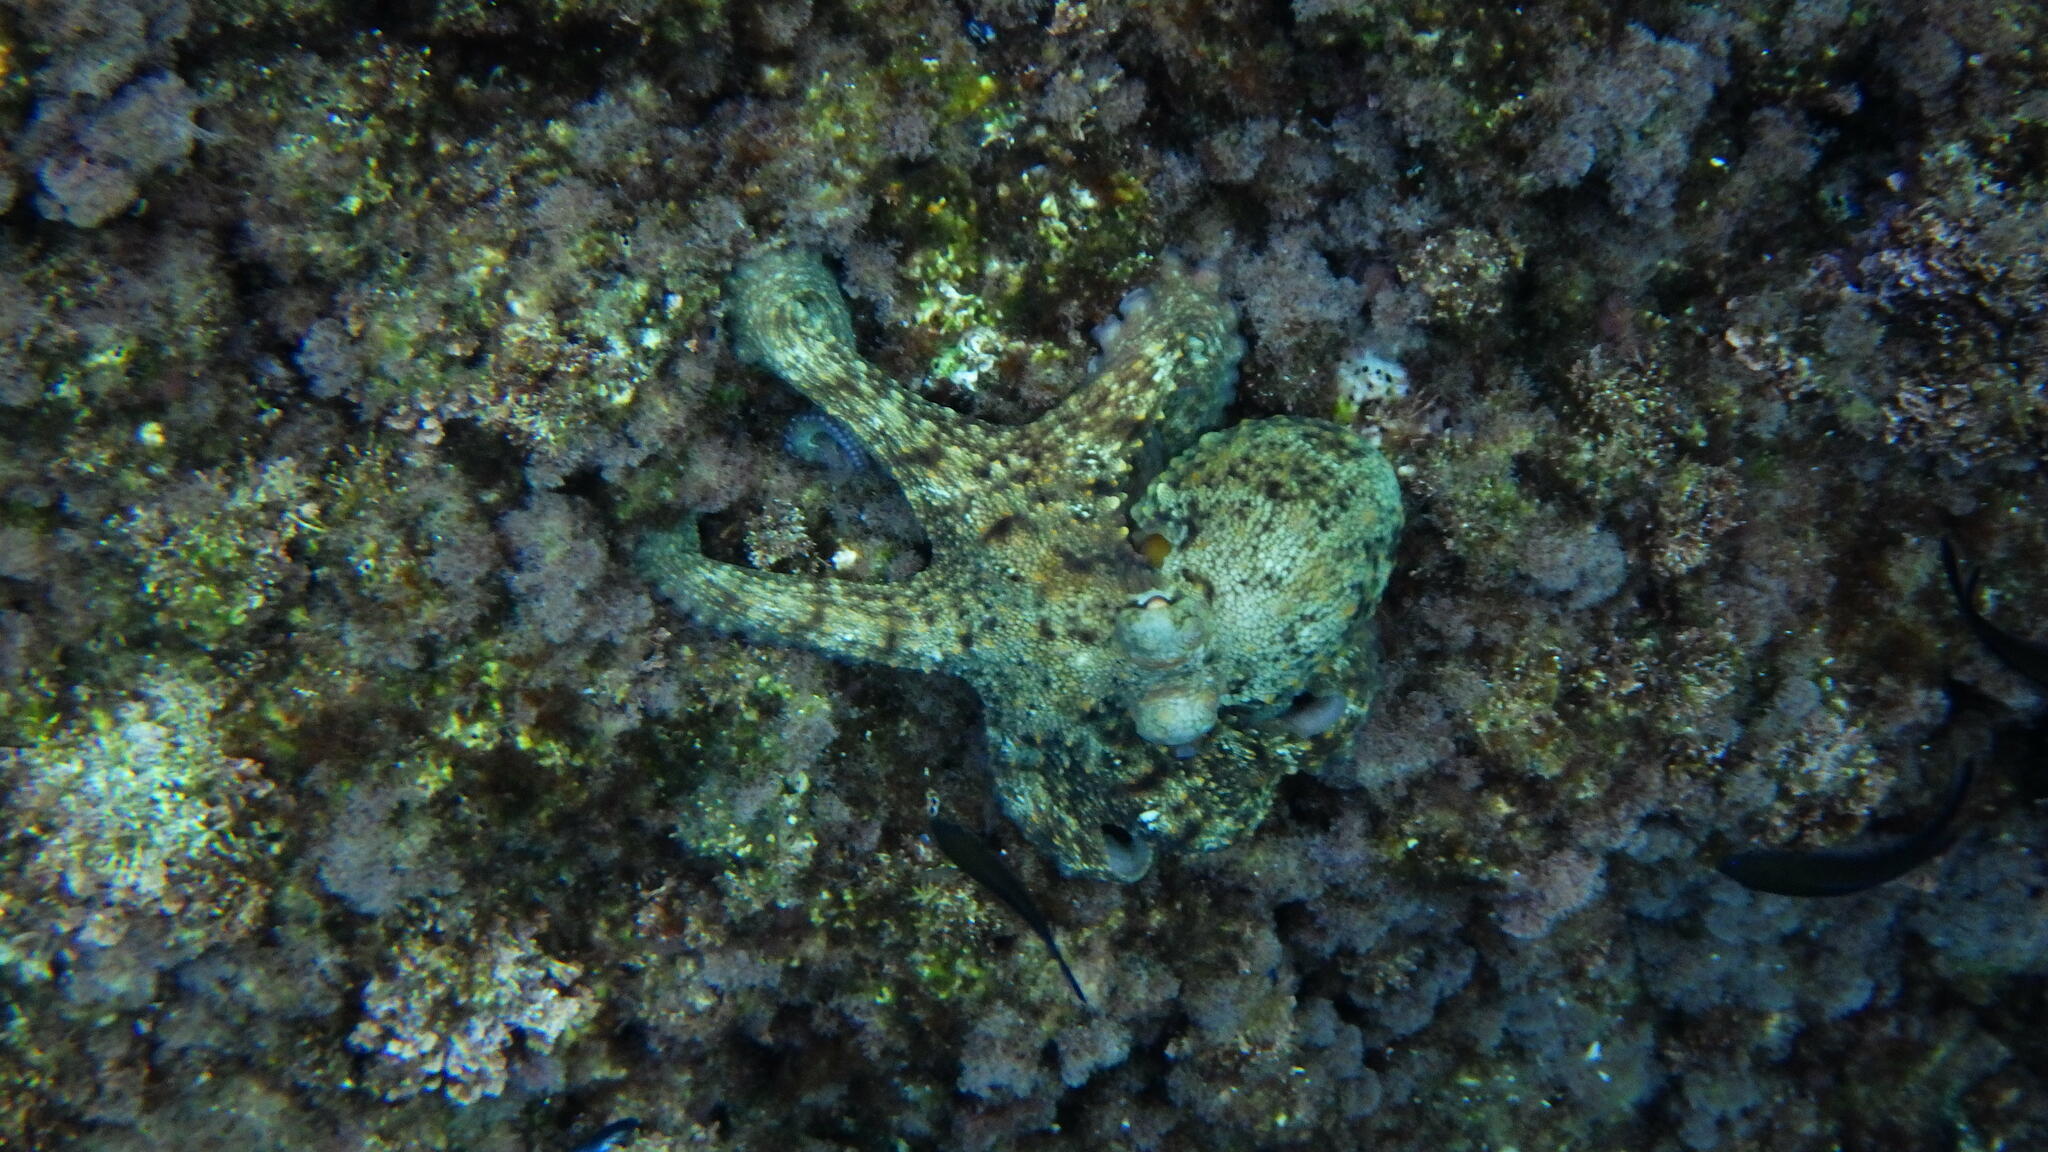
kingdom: Animalia
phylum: Mollusca
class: Cephalopoda
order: Octopoda
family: Octopodidae
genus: Octopus
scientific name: Octopus vulgaris
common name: Common octopus
